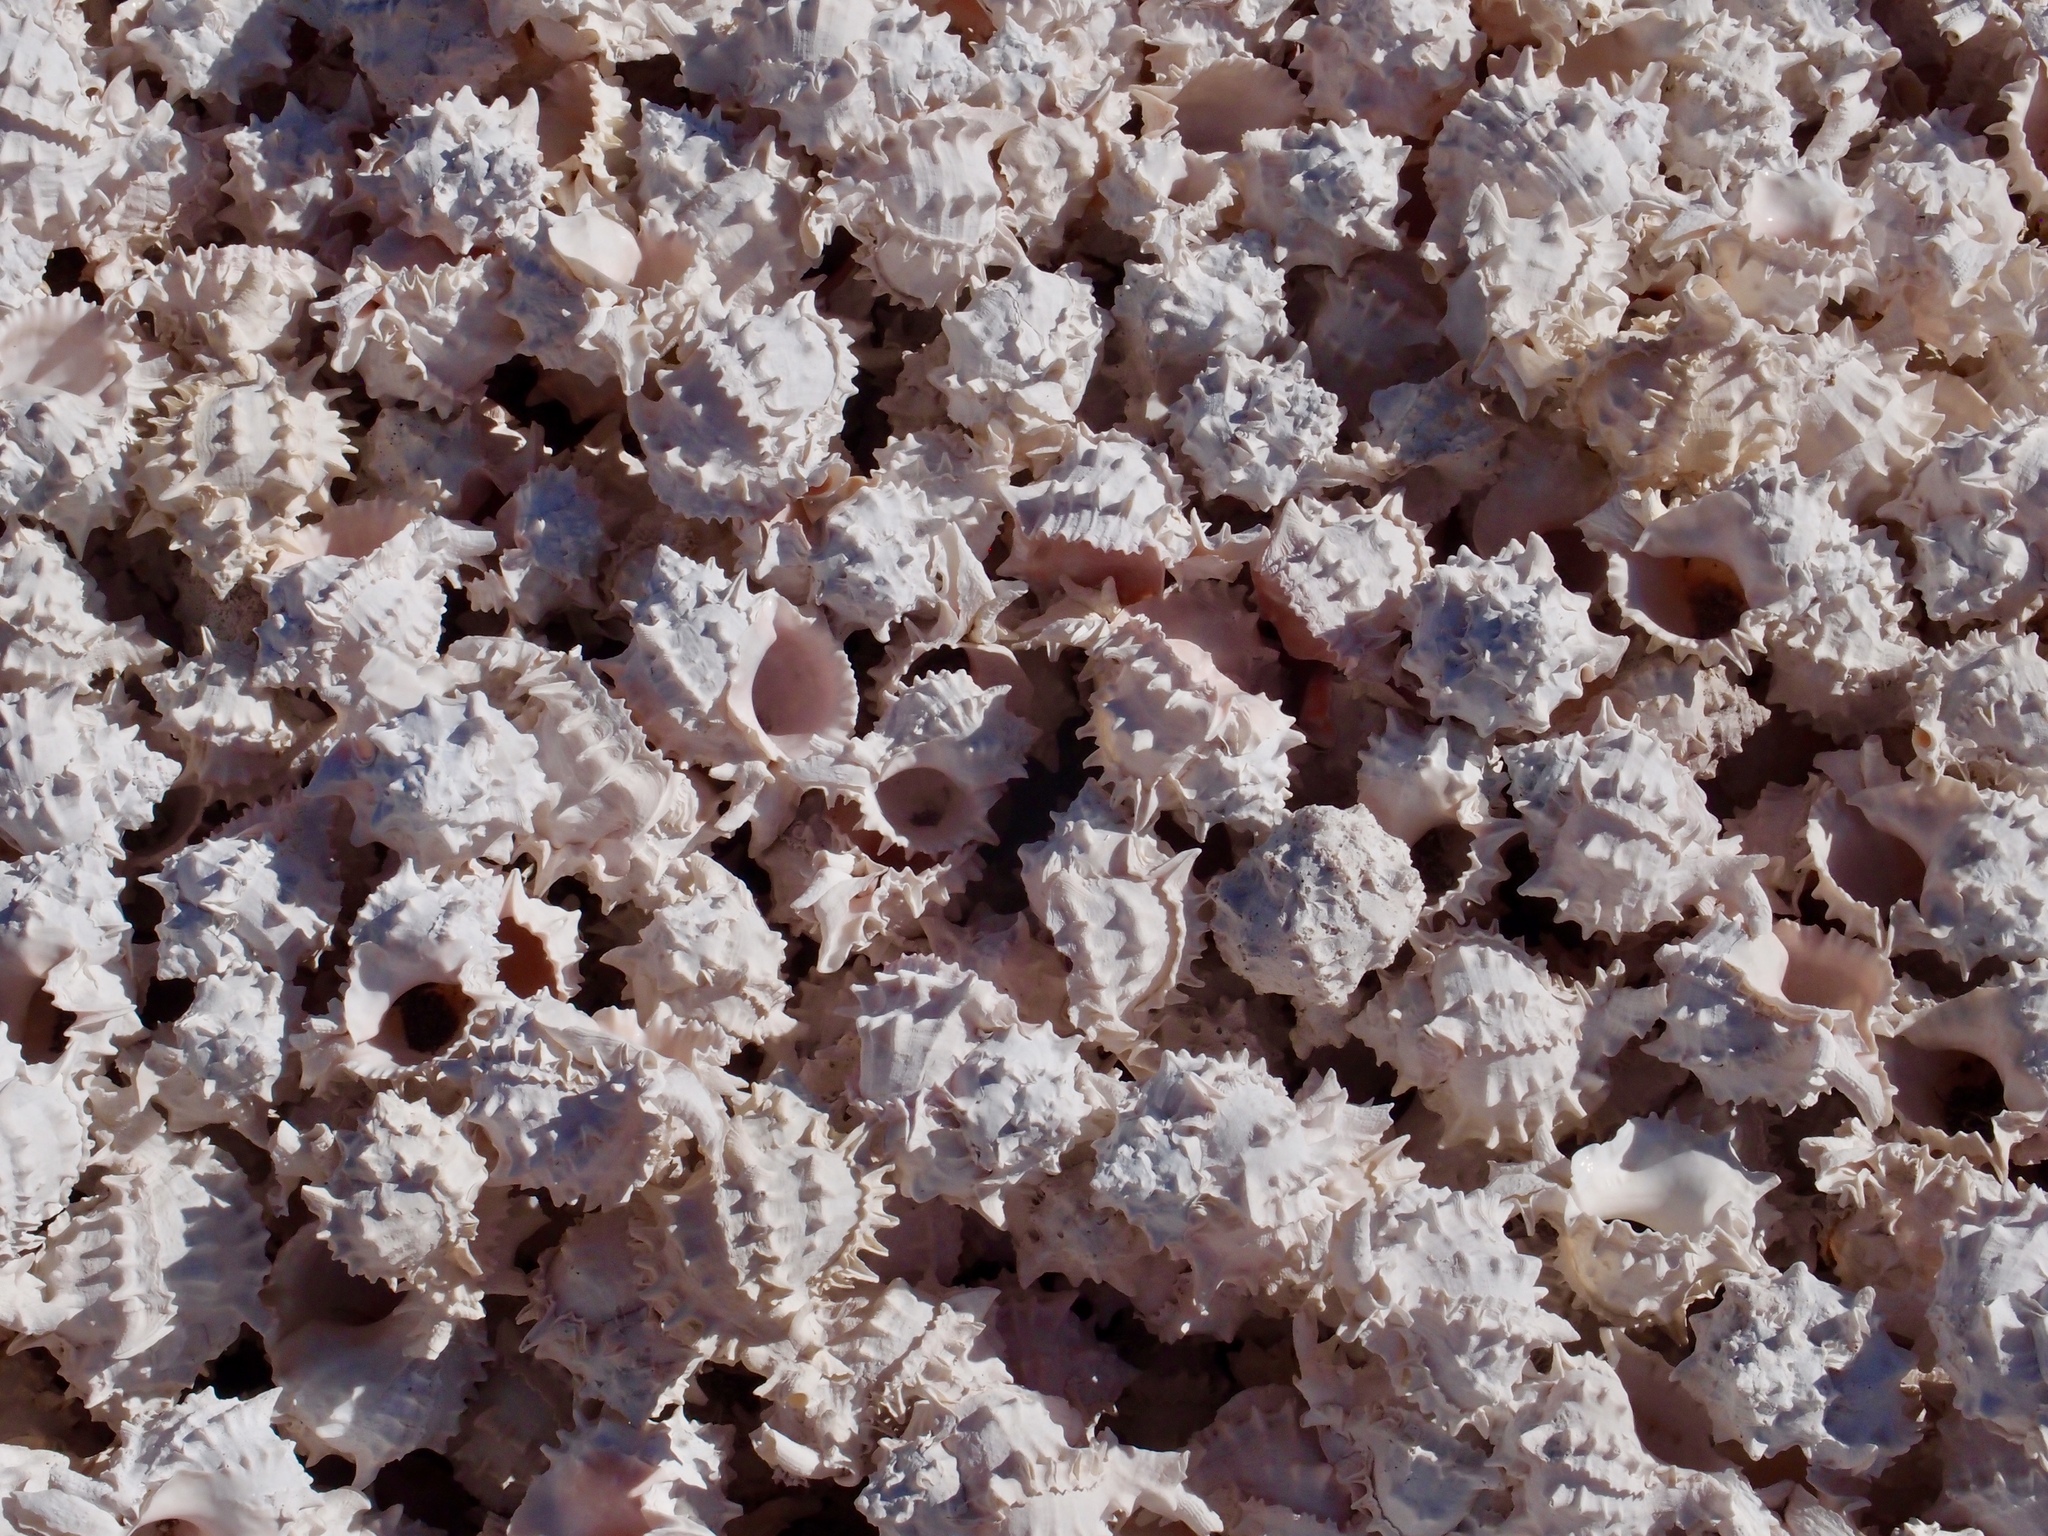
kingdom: Animalia
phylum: Mollusca
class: Gastropoda
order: Neogastropoda
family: Muricidae
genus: Phyllonotus
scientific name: Phyllonotus erythrostomus
